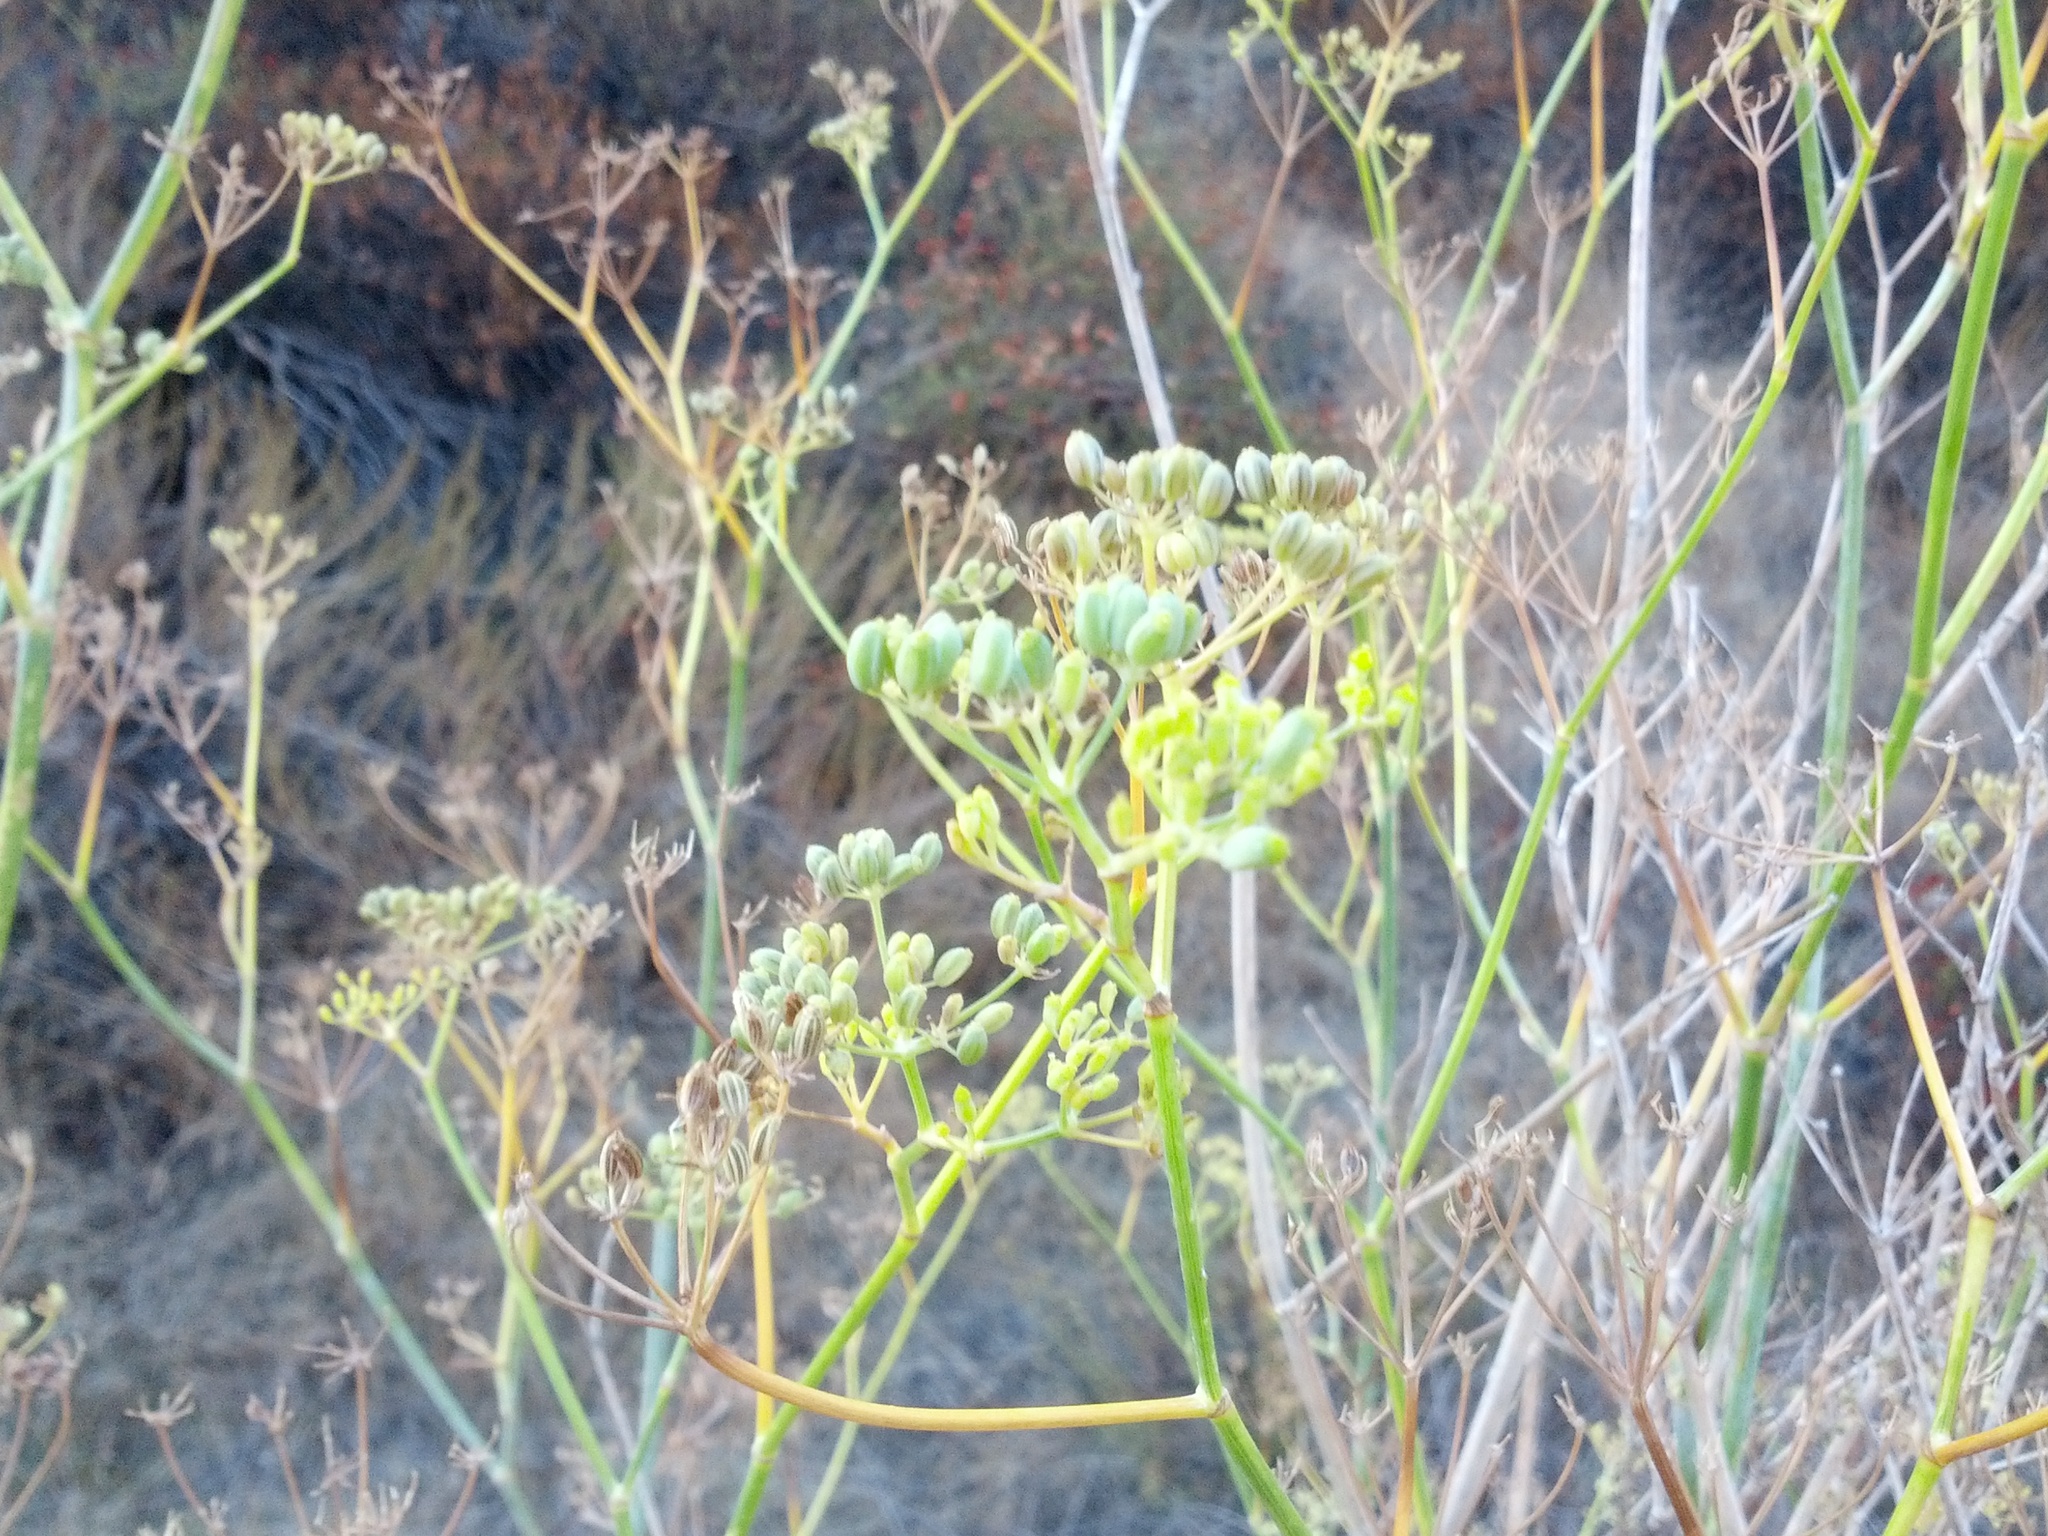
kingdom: Plantae
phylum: Tracheophyta
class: Magnoliopsida
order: Apiales
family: Apiaceae
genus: Foeniculum
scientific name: Foeniculum vulgare
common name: Fennel
